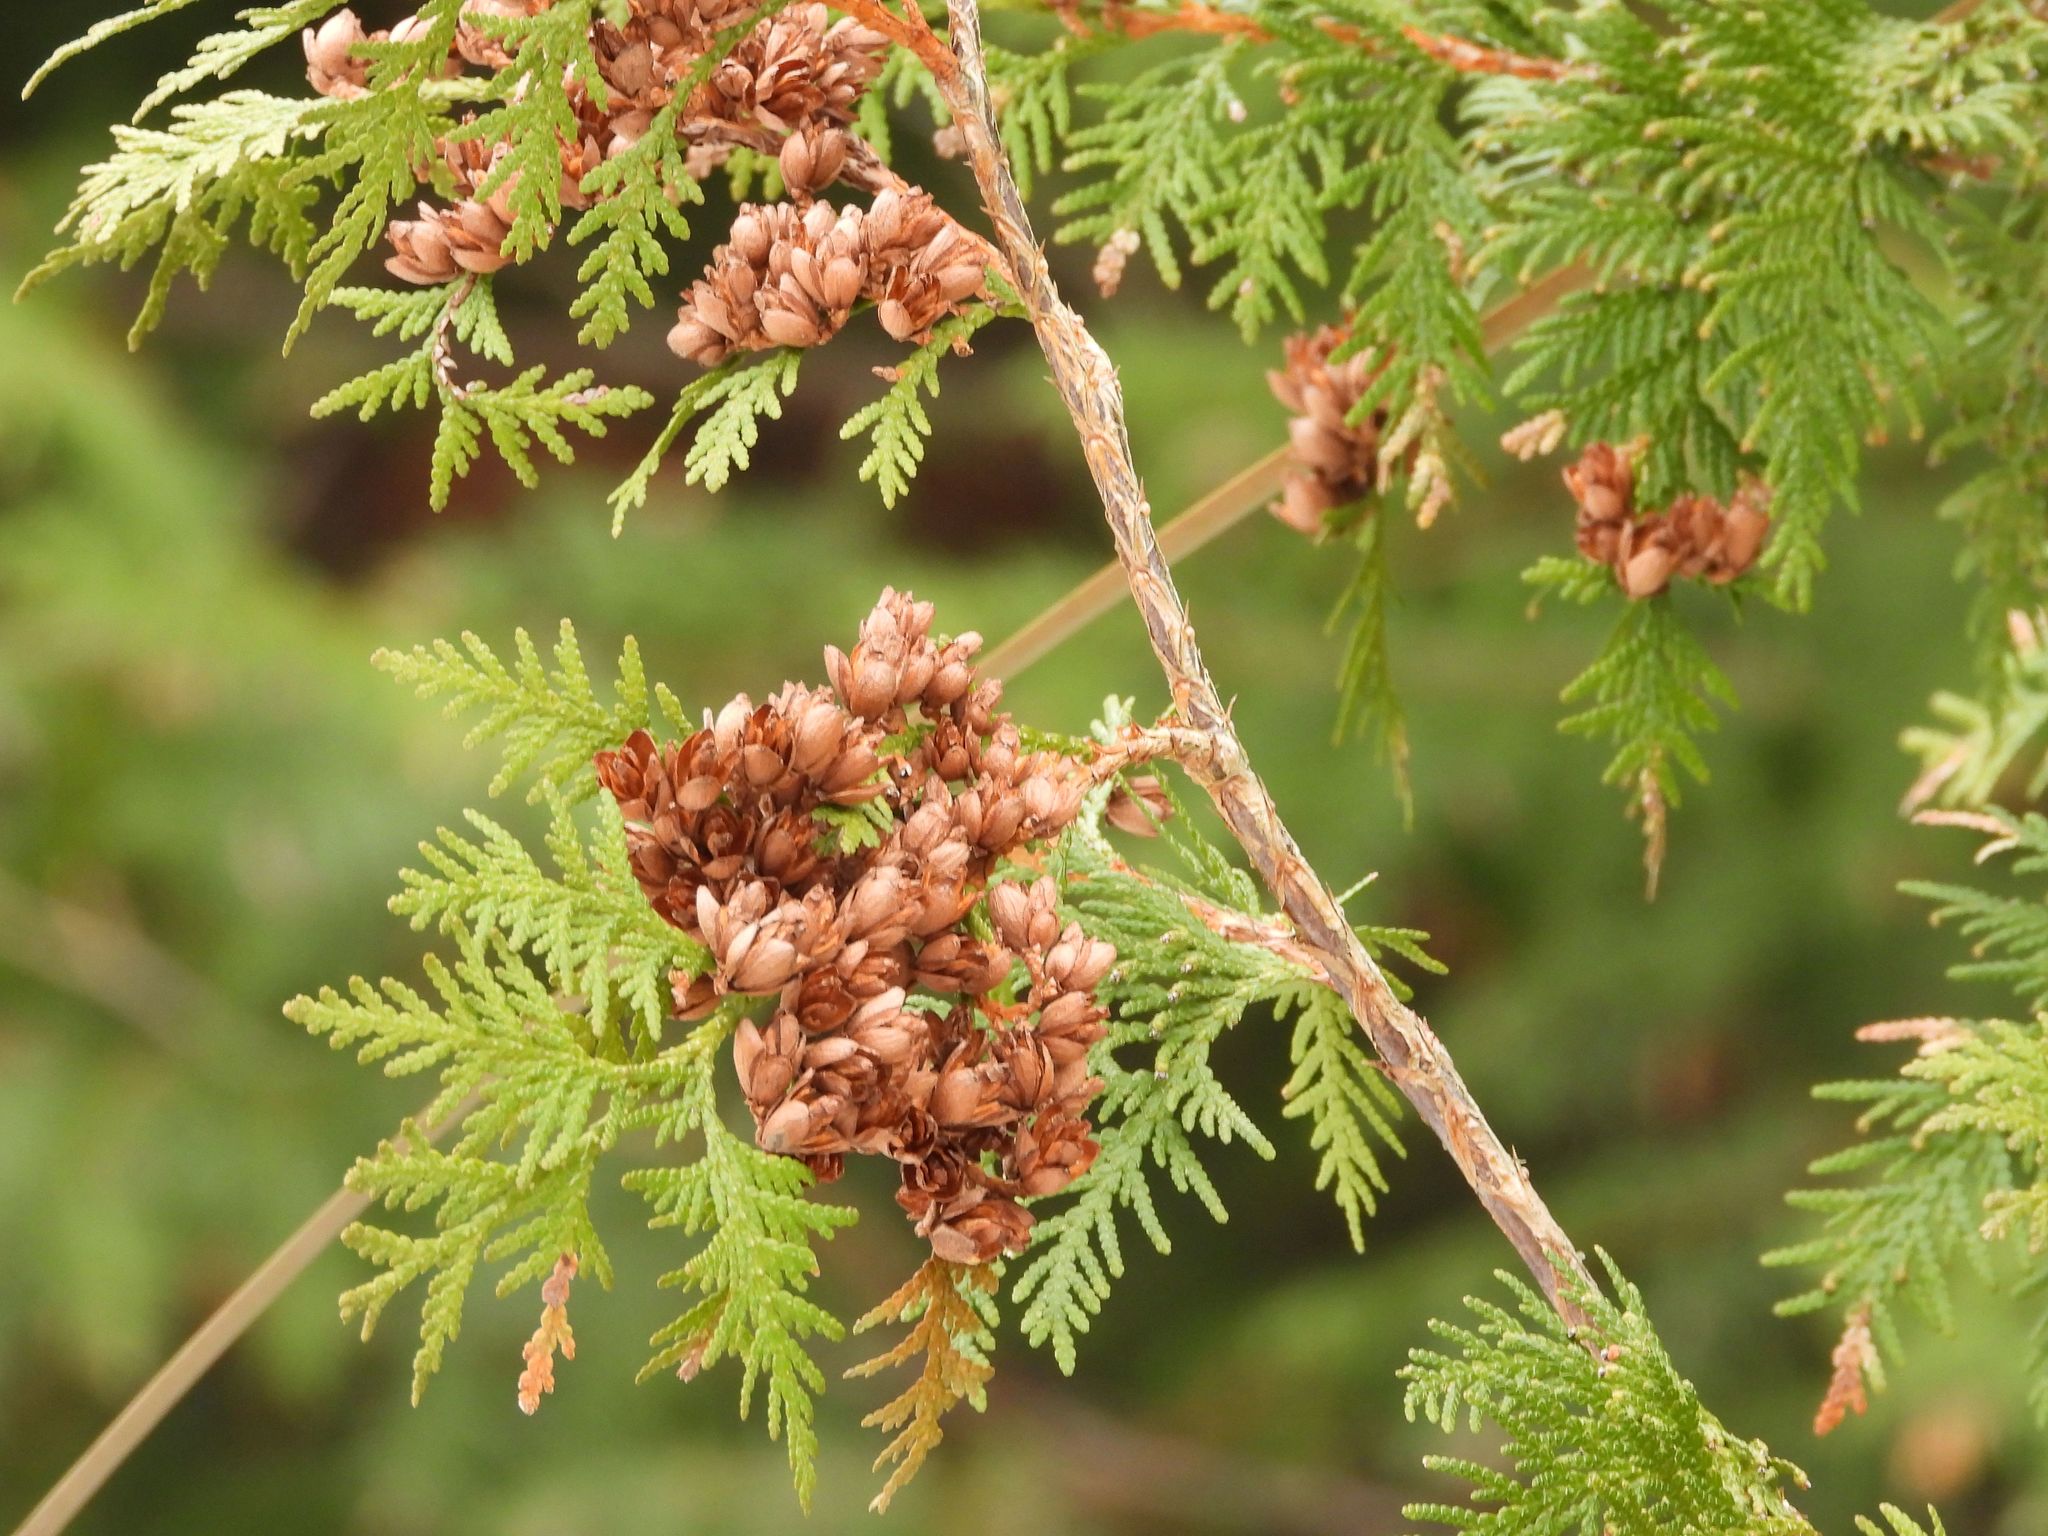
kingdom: Plantae
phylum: Tracheophyta
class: Pinopsida
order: Pinales
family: Cupressaceae
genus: Thuja
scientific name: Thuja occidentalis
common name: Northern white-cedar
